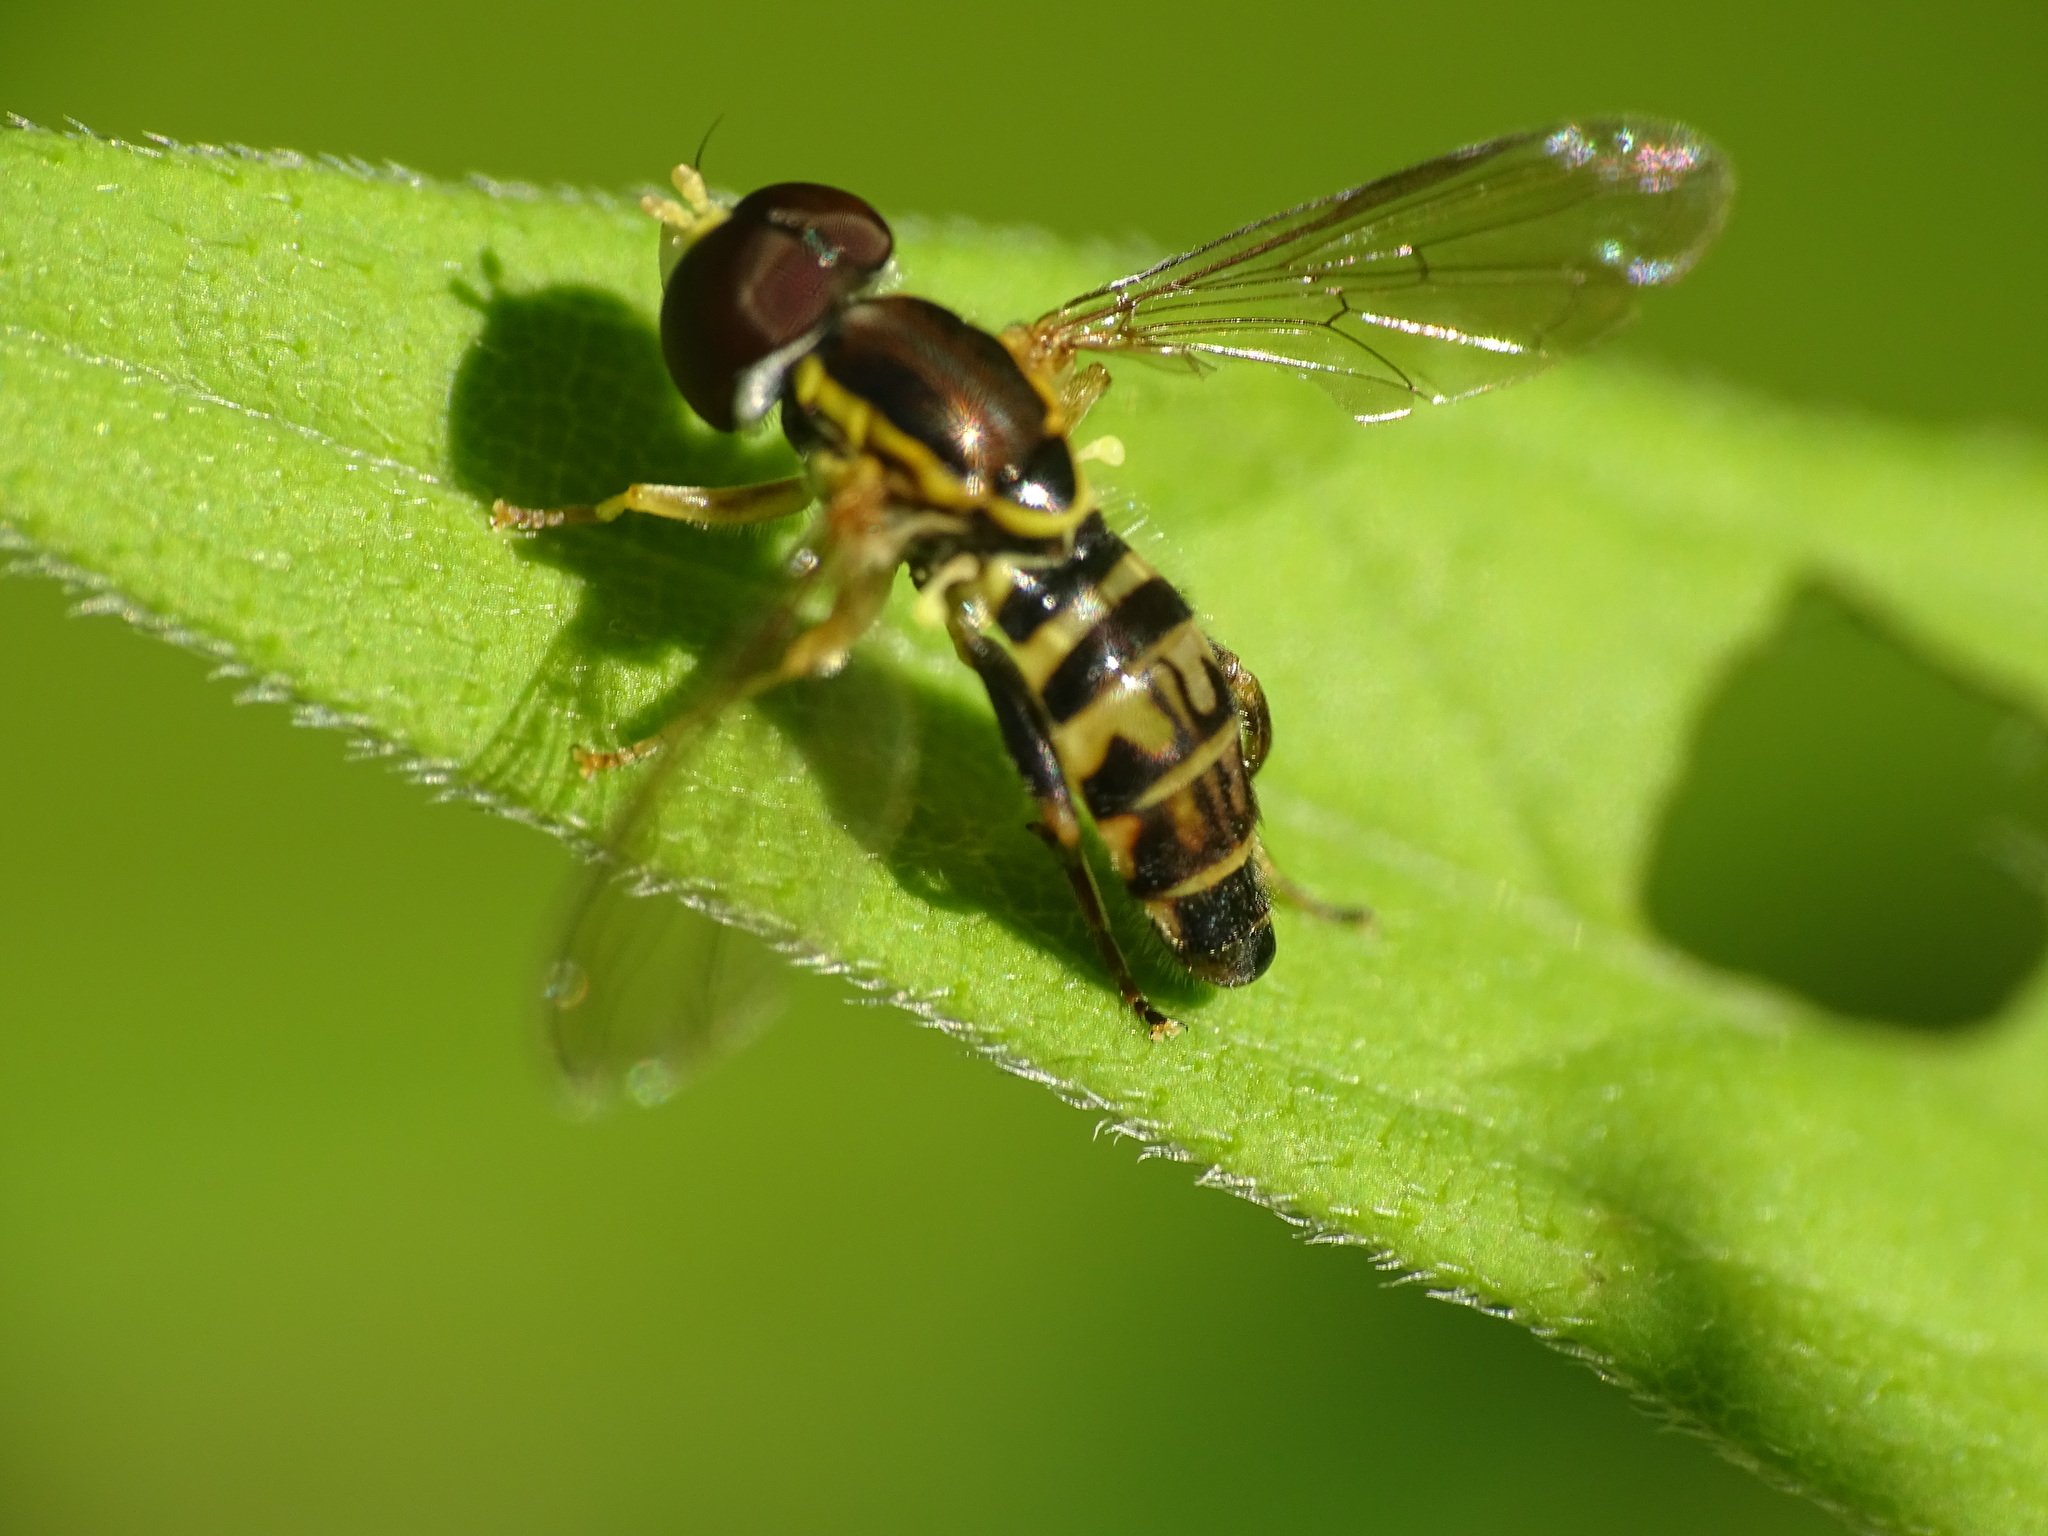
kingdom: Animalia
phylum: Arthropoda
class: Insecta
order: Diptera
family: Syrphidae
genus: Toxomerus
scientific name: Toxomerus geminatus
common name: Eastern calligrapher
